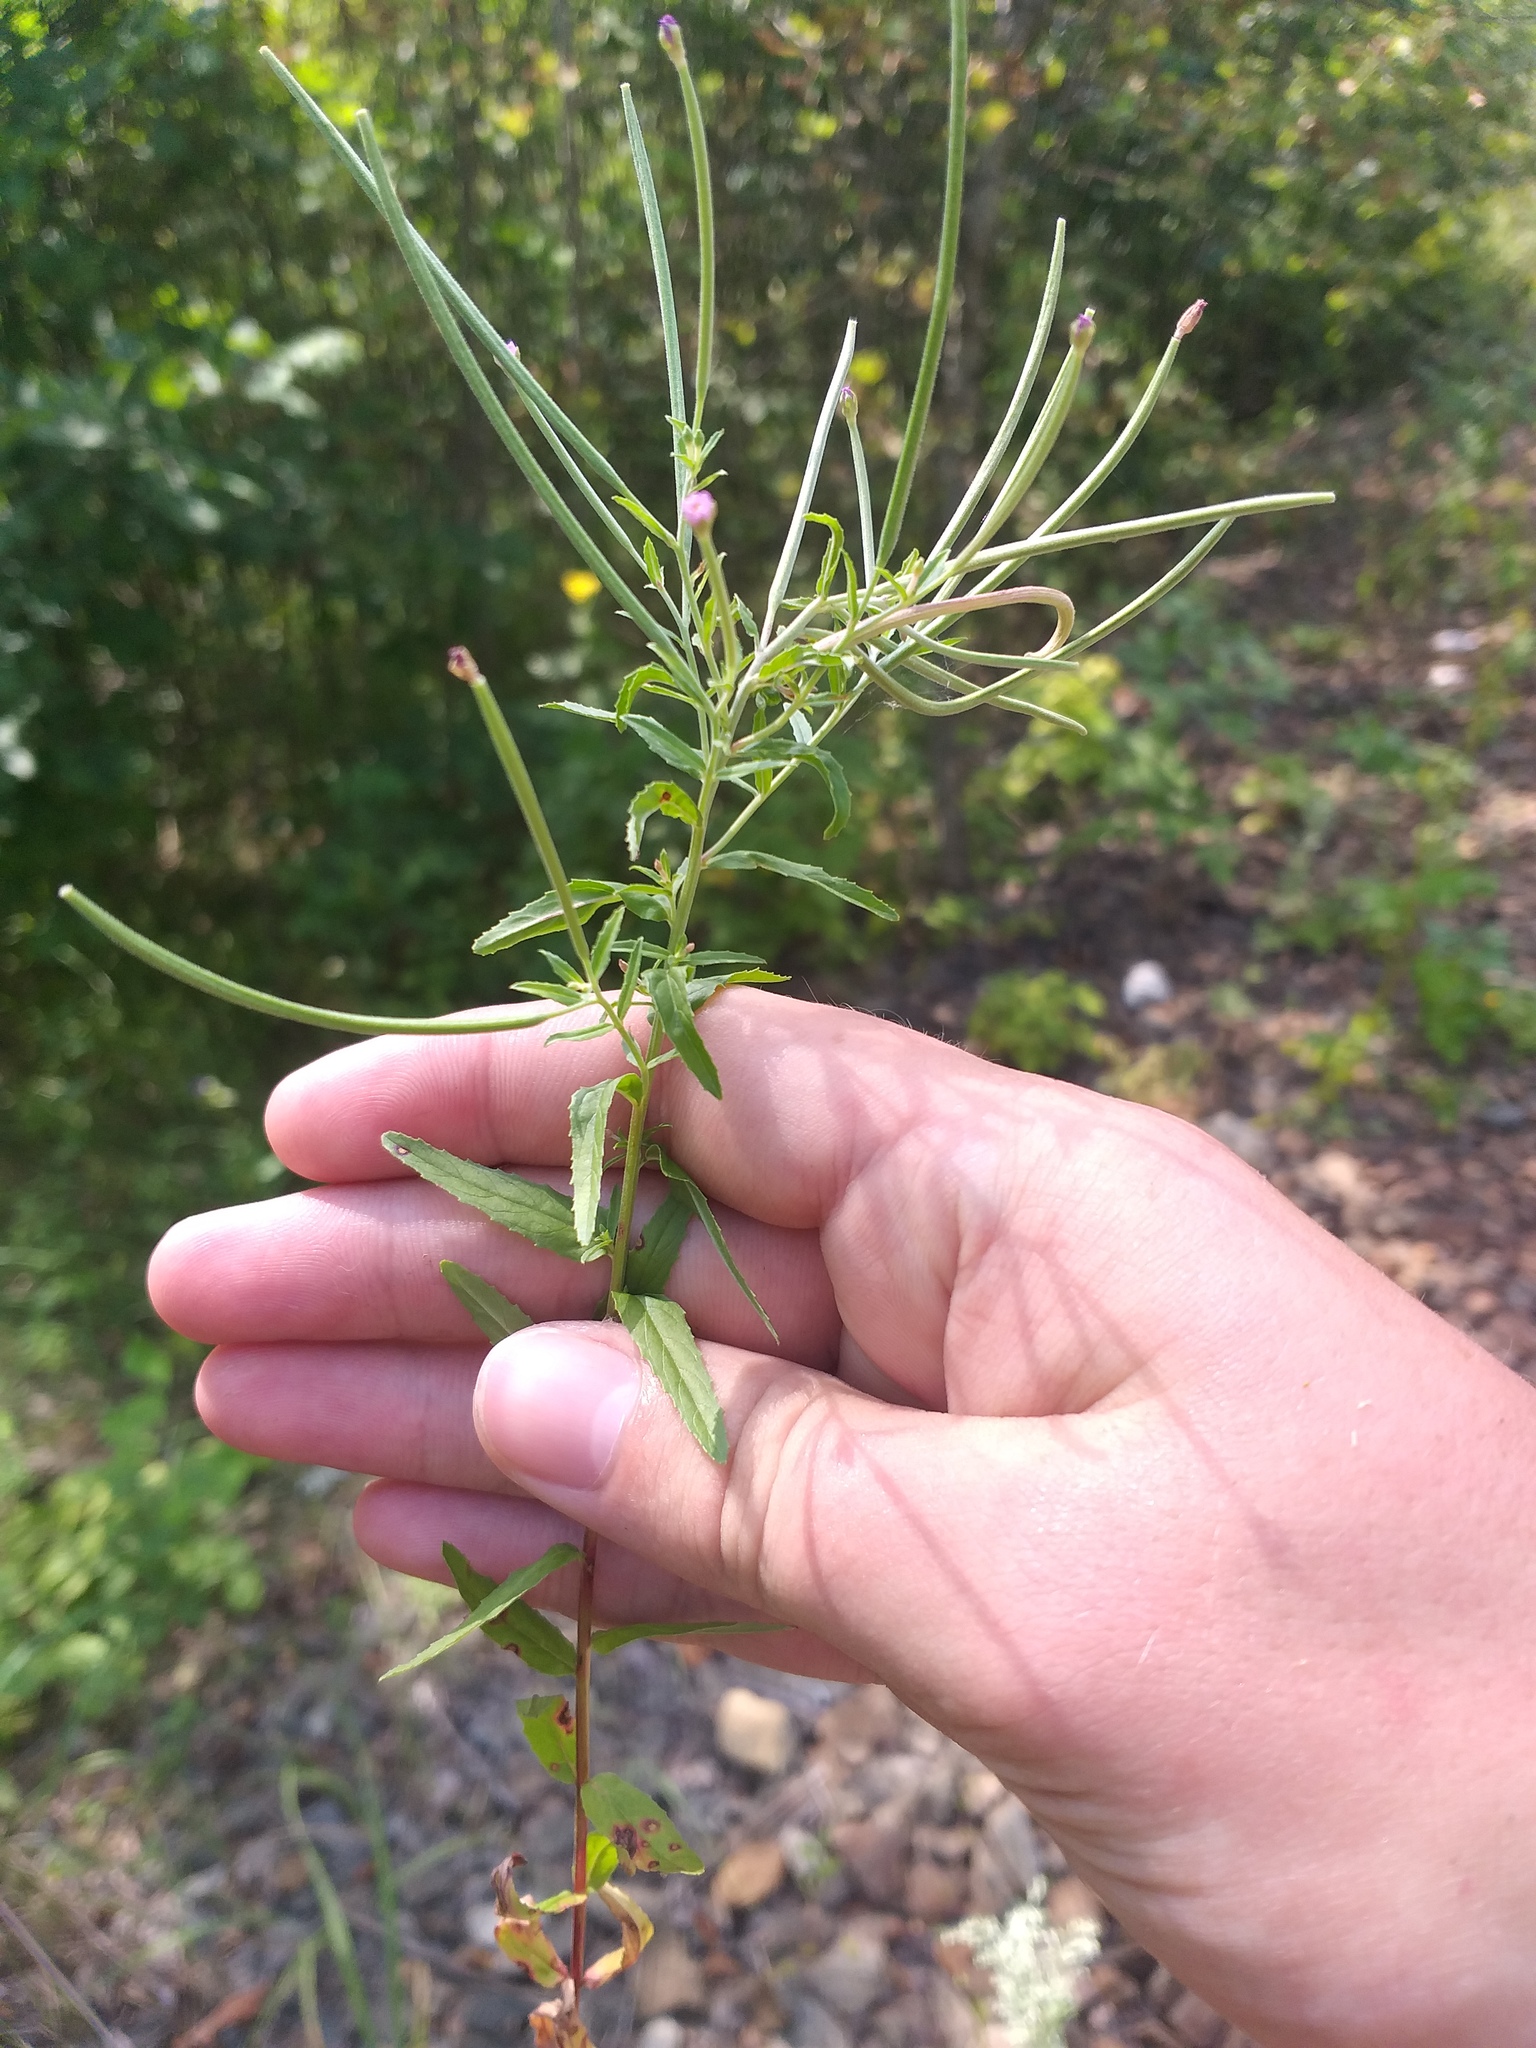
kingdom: Plantae
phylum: Tracheophyta
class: Magnoliopsida
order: Myrtales
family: Onagraceae
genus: Epilobium
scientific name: Epilobium tetragonum
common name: Square-stemmed willowherb
